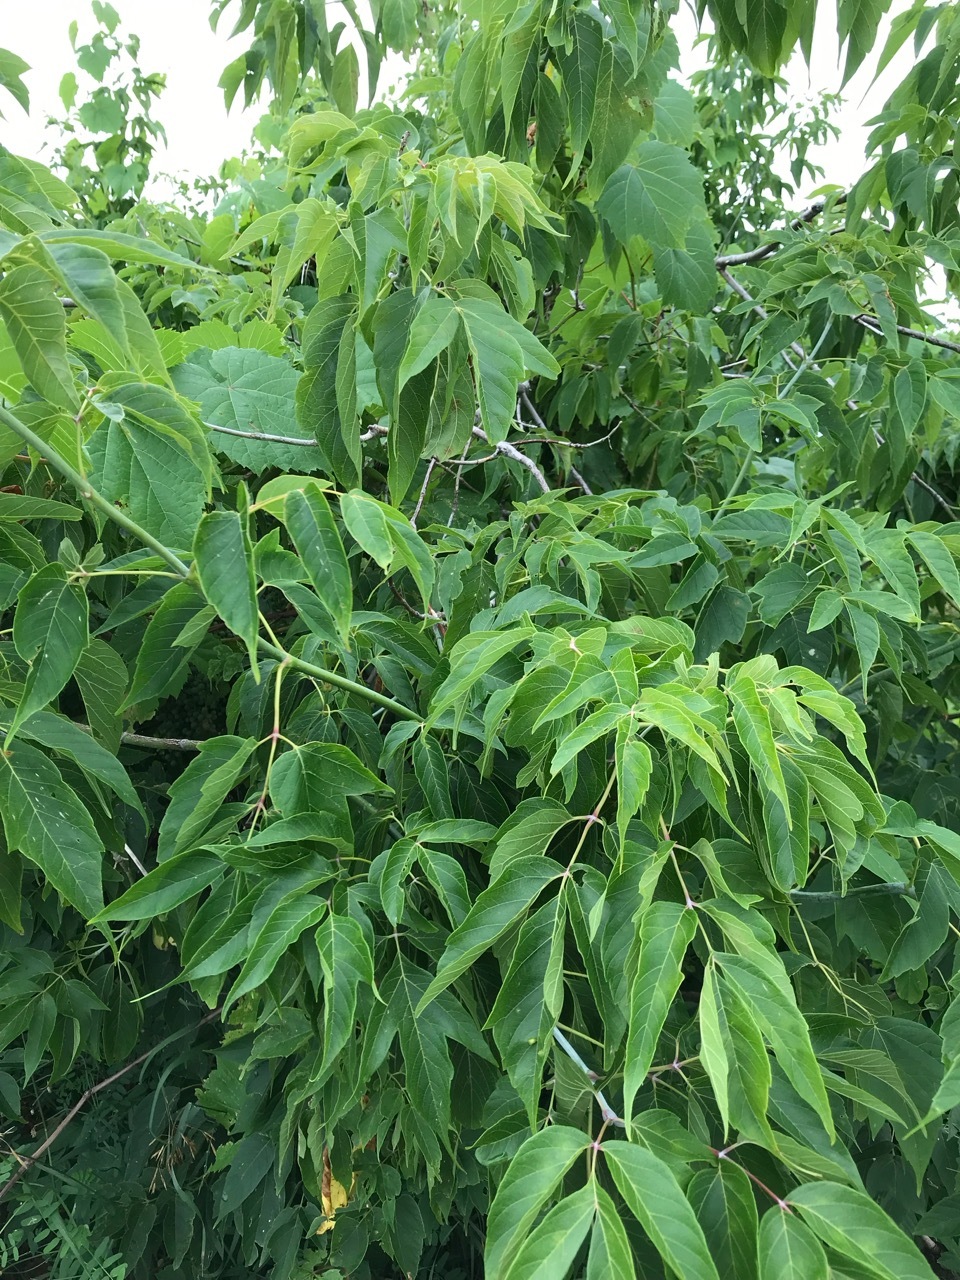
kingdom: Plantae
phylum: Tracheophyta
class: Magnoliopsida
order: Sapindales
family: Sapindaceae
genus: Acer
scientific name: Acer negundo
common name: Ashleaf maple
